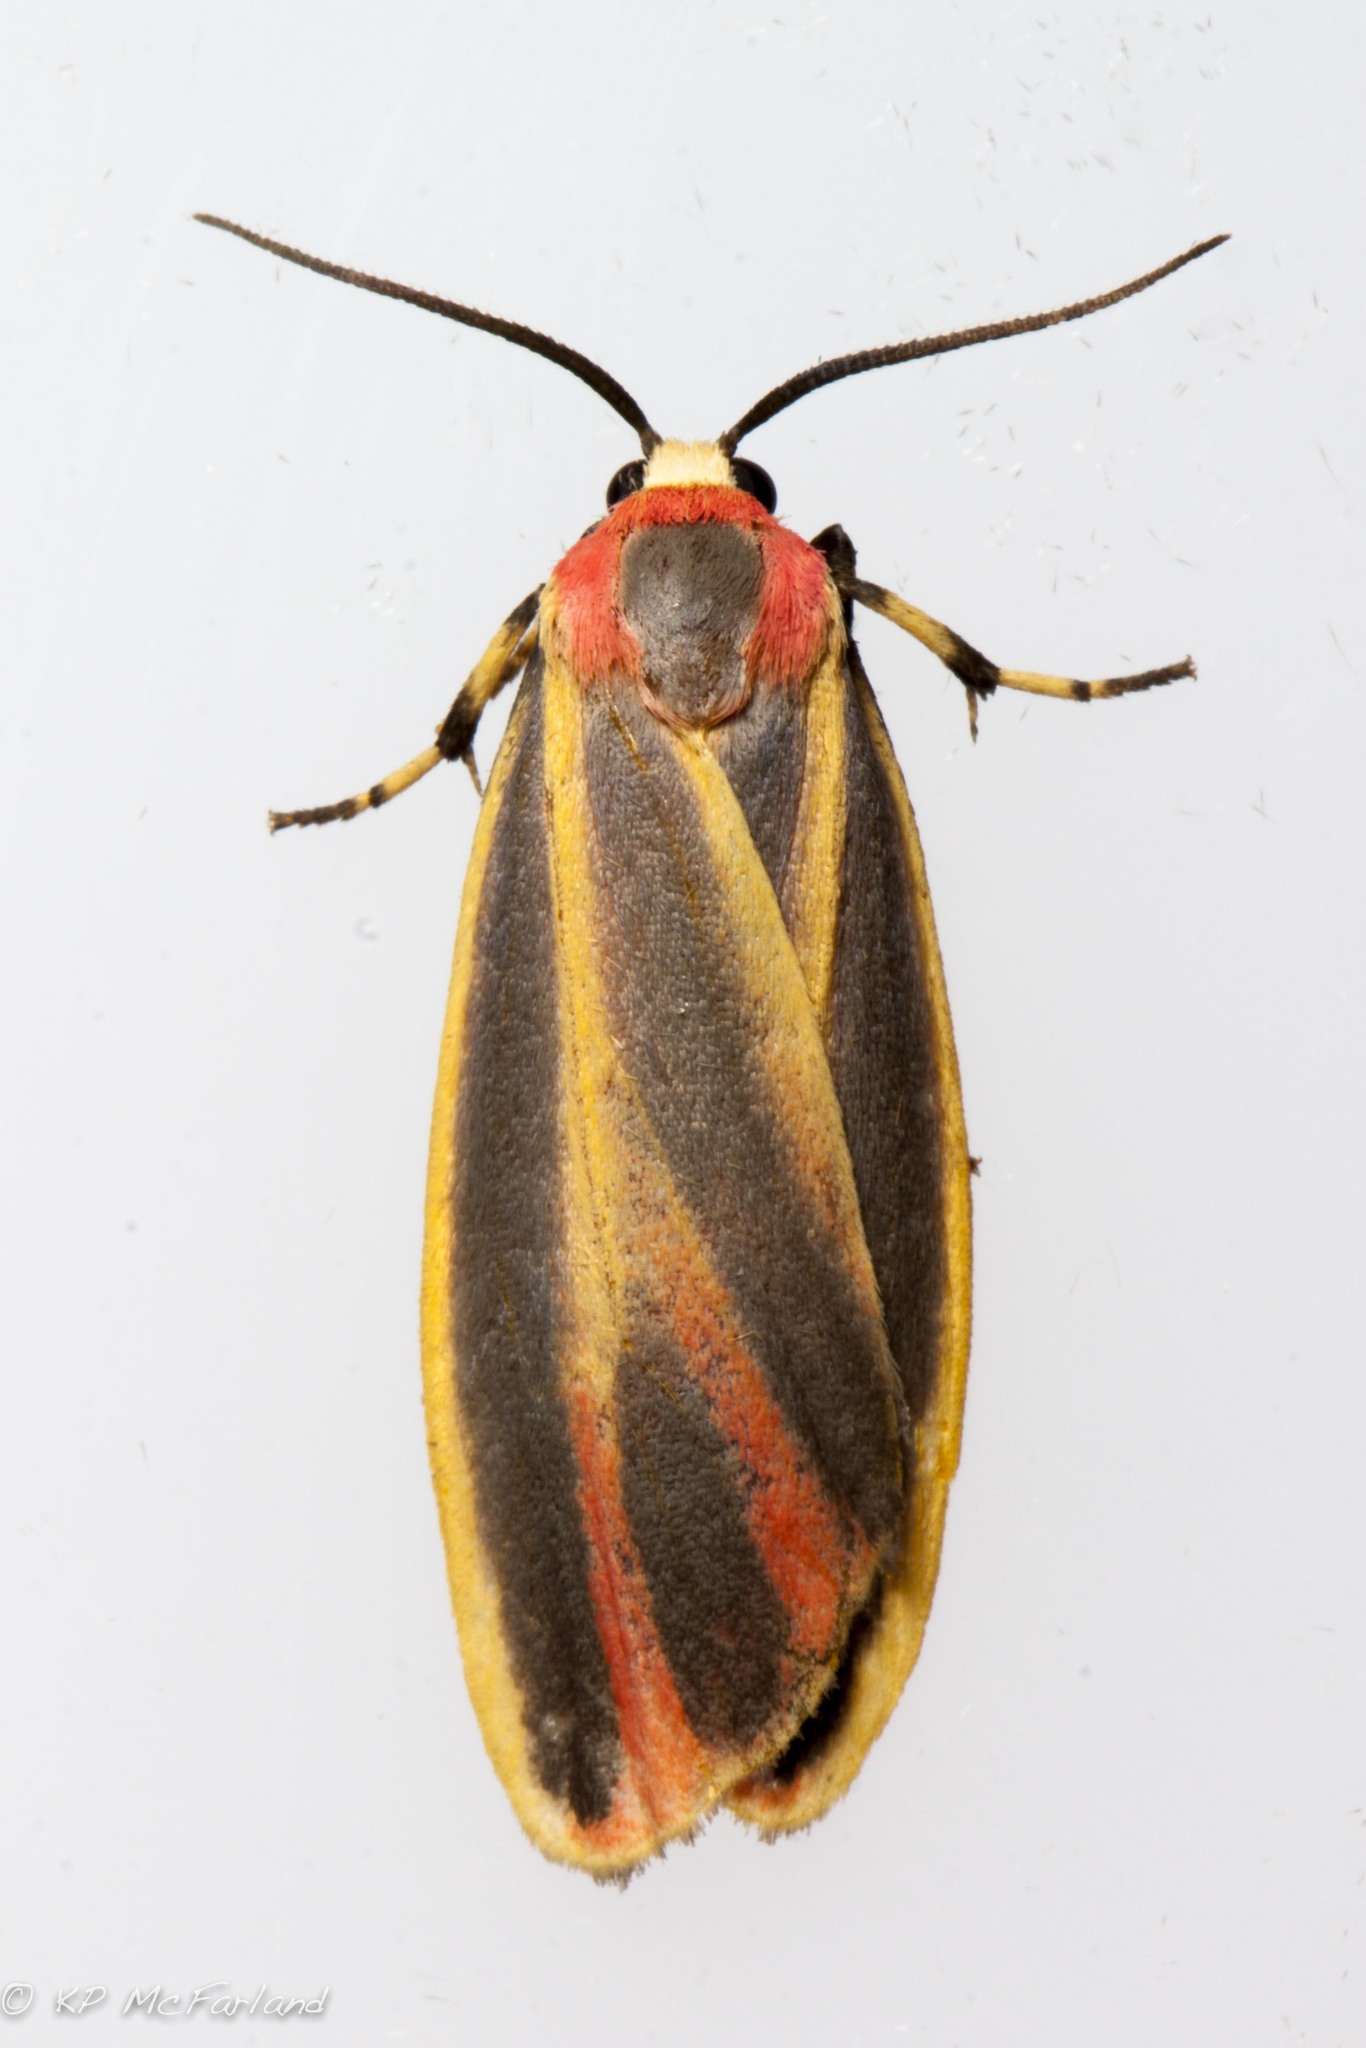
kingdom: Animalia
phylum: Arthropoda
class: Insecta
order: Lepidoptera
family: Erebidae
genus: Hypoprepia
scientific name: Hypoprepia fucosa
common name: Painted lichen moth
